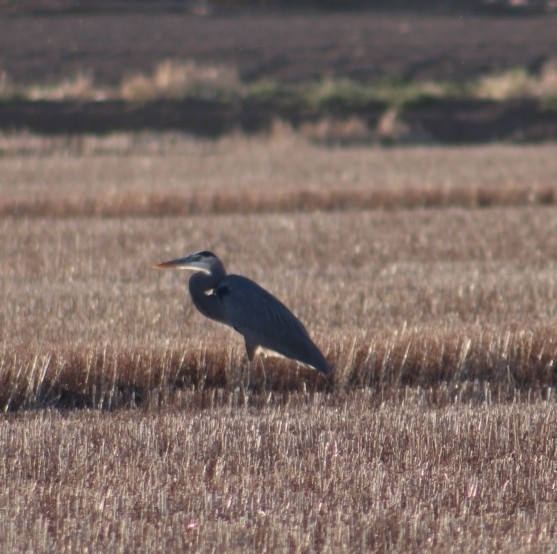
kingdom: Animalia
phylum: Chordata
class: Aves
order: Pelecaniformes
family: Ardeidae
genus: Ardea
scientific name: Ardea herodias
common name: Great blue heron
